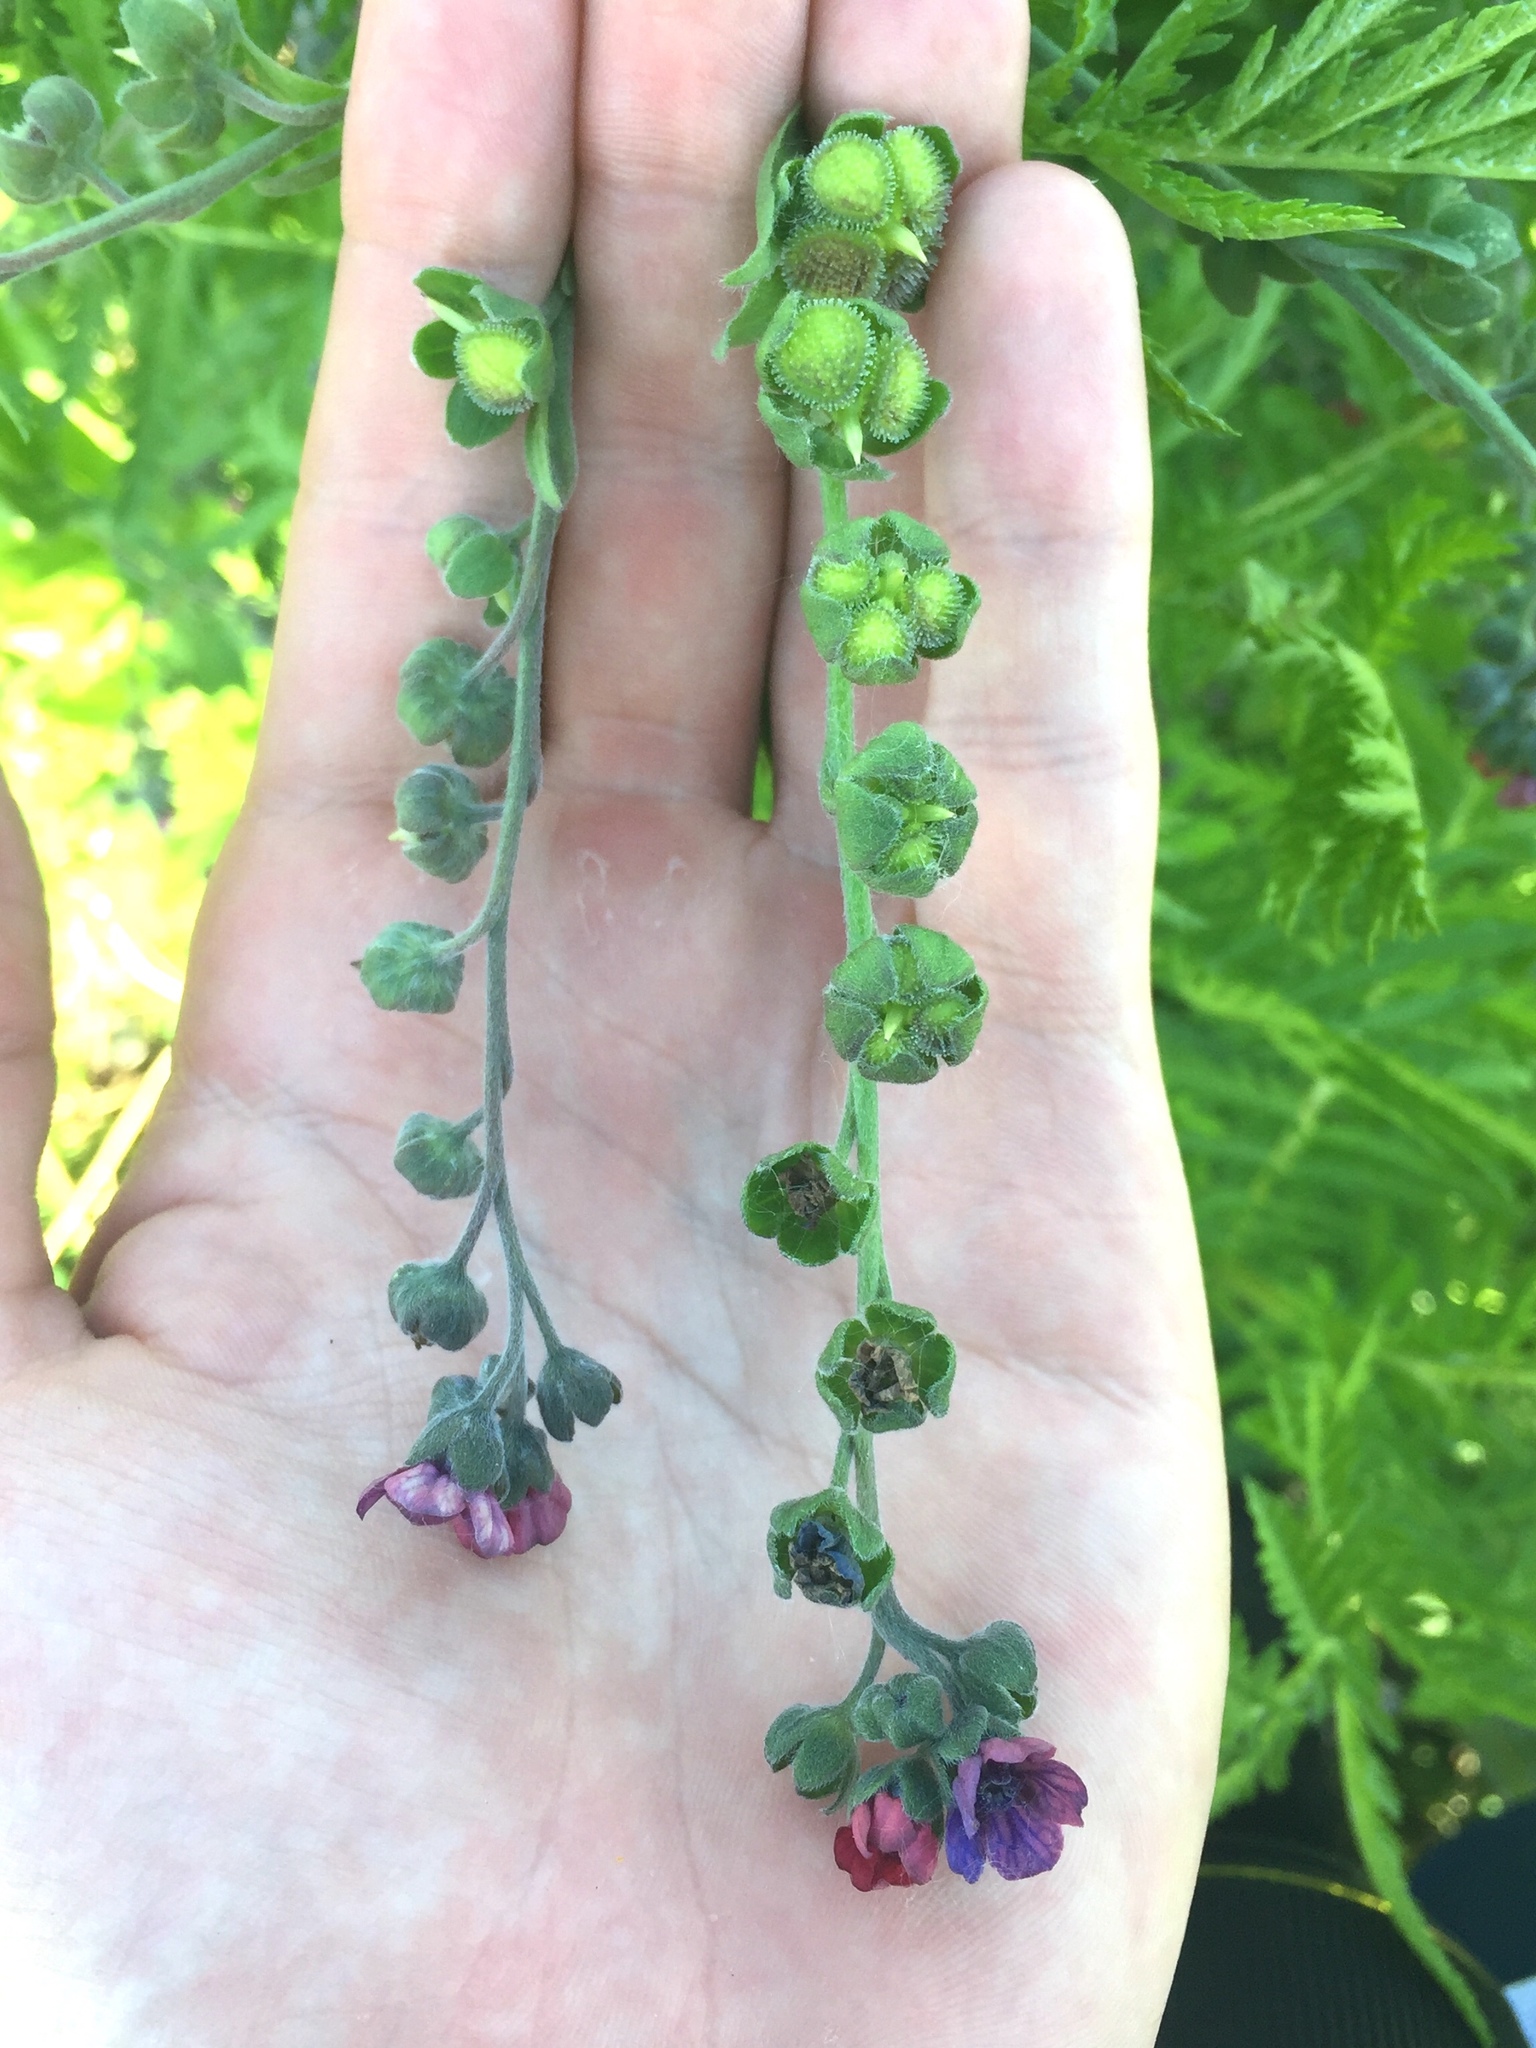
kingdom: Plantae
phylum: Tracheophyta
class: Magnoliopsida
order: Boraginales
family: Boraginaceae
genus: Cynoglossum
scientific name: Cynoglossum officinale
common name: Hound's-tongue
